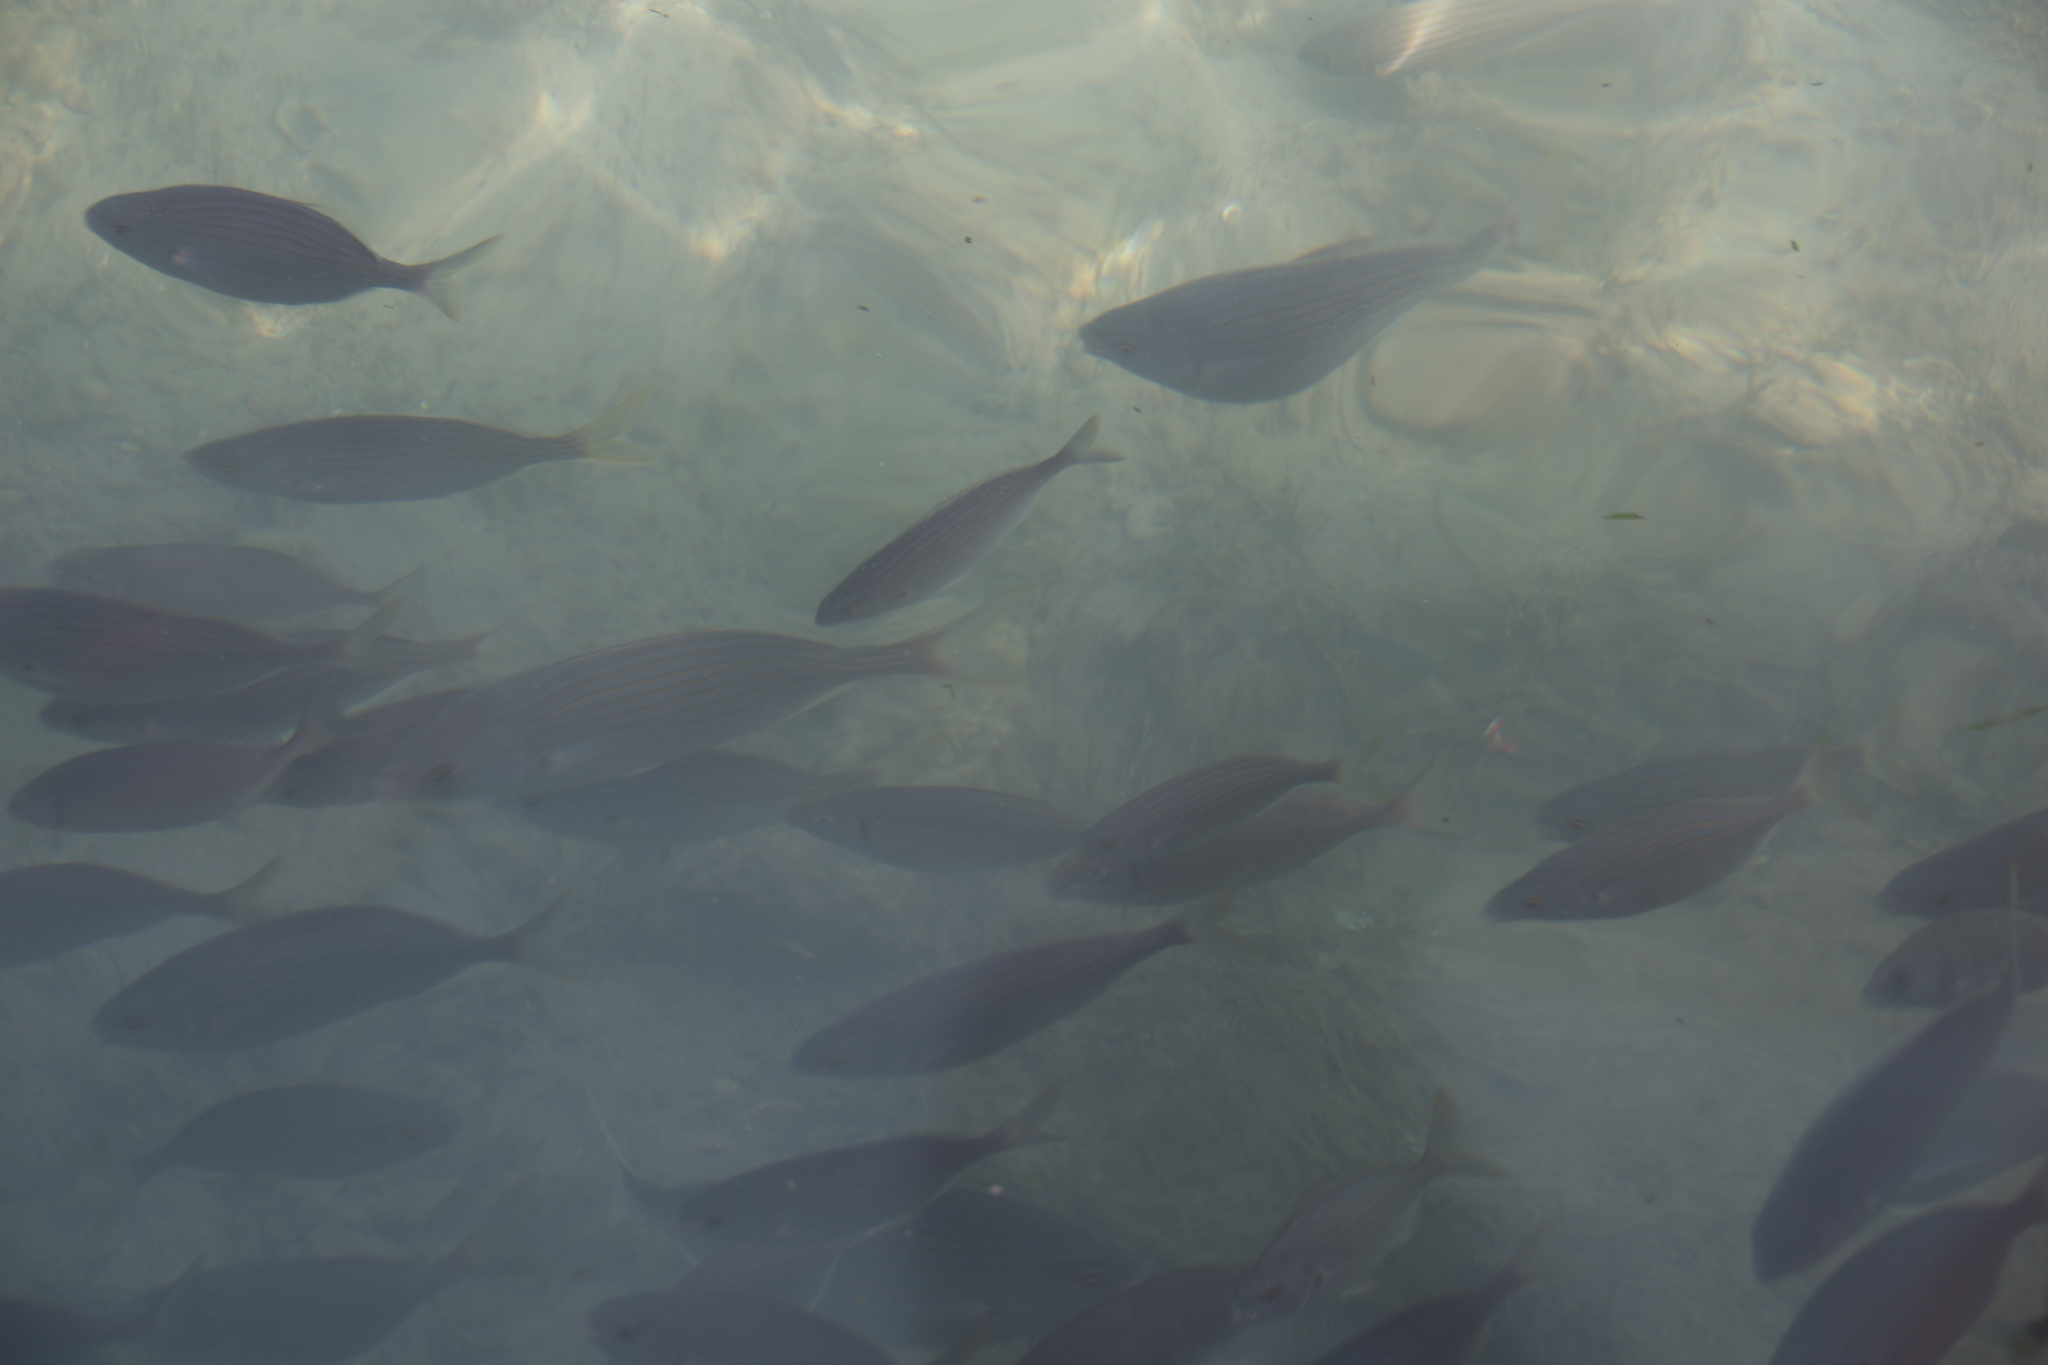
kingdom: Animalia
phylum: Chordata
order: Perciformes
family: Sparidae
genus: Sarpa
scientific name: Sarpa salpa
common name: Salema
